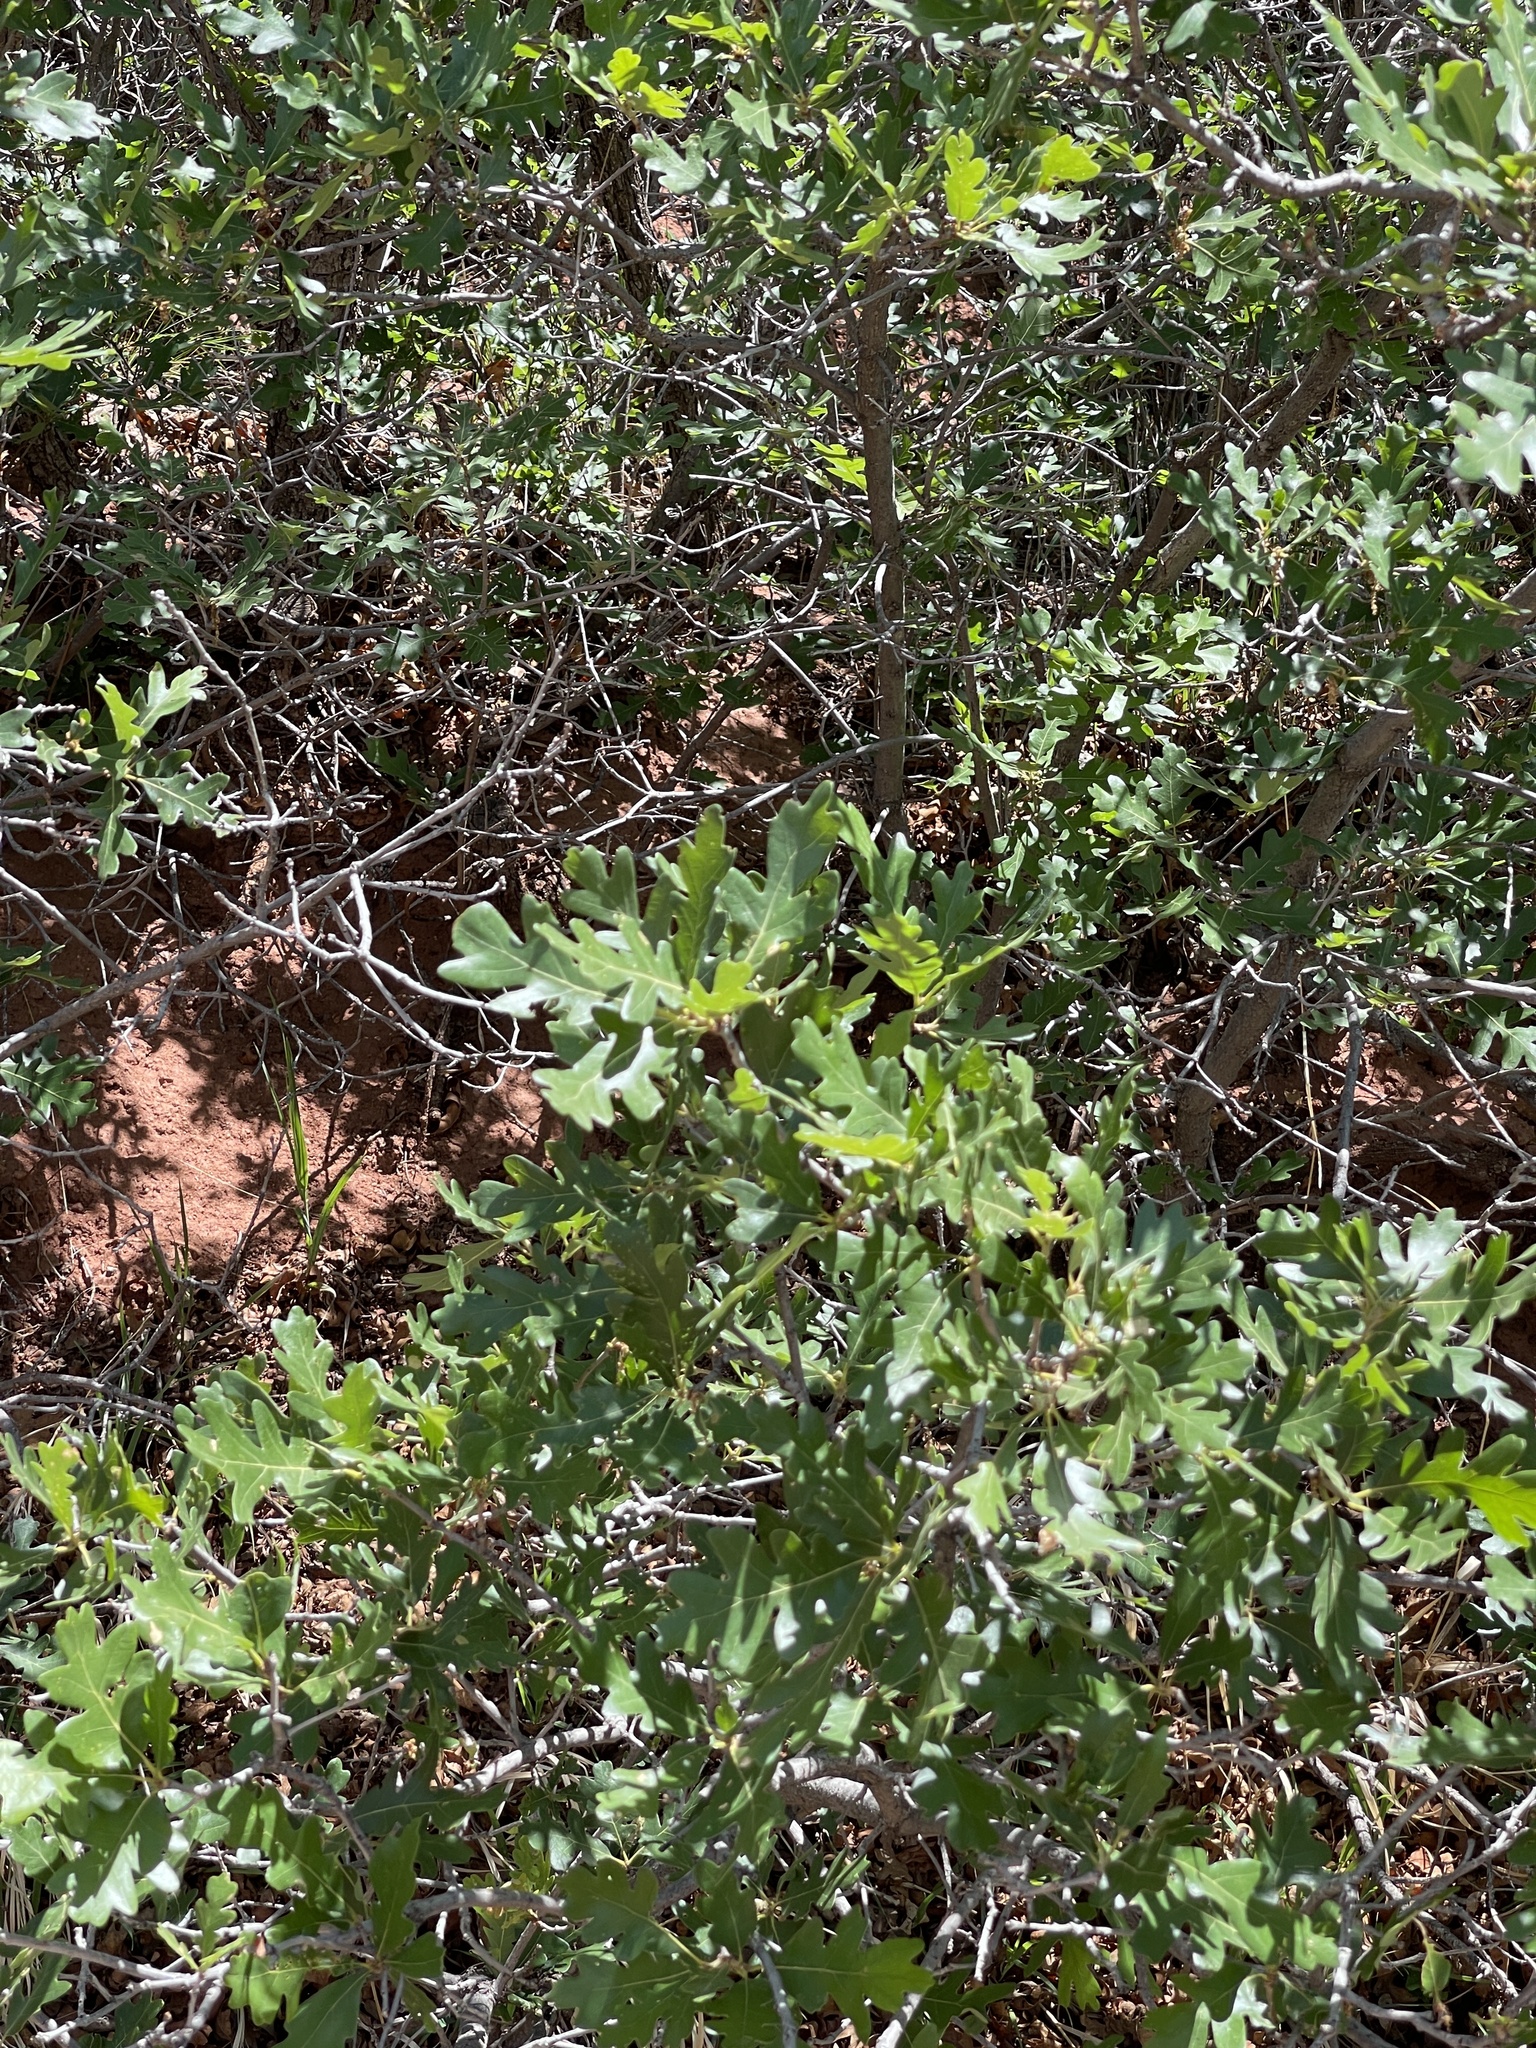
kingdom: Plantae
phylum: Tracheophyta
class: Magnoliopsida
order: Fagales
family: Fagaceae
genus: Quercus
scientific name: Quercus gambelii
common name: Gambel oak
